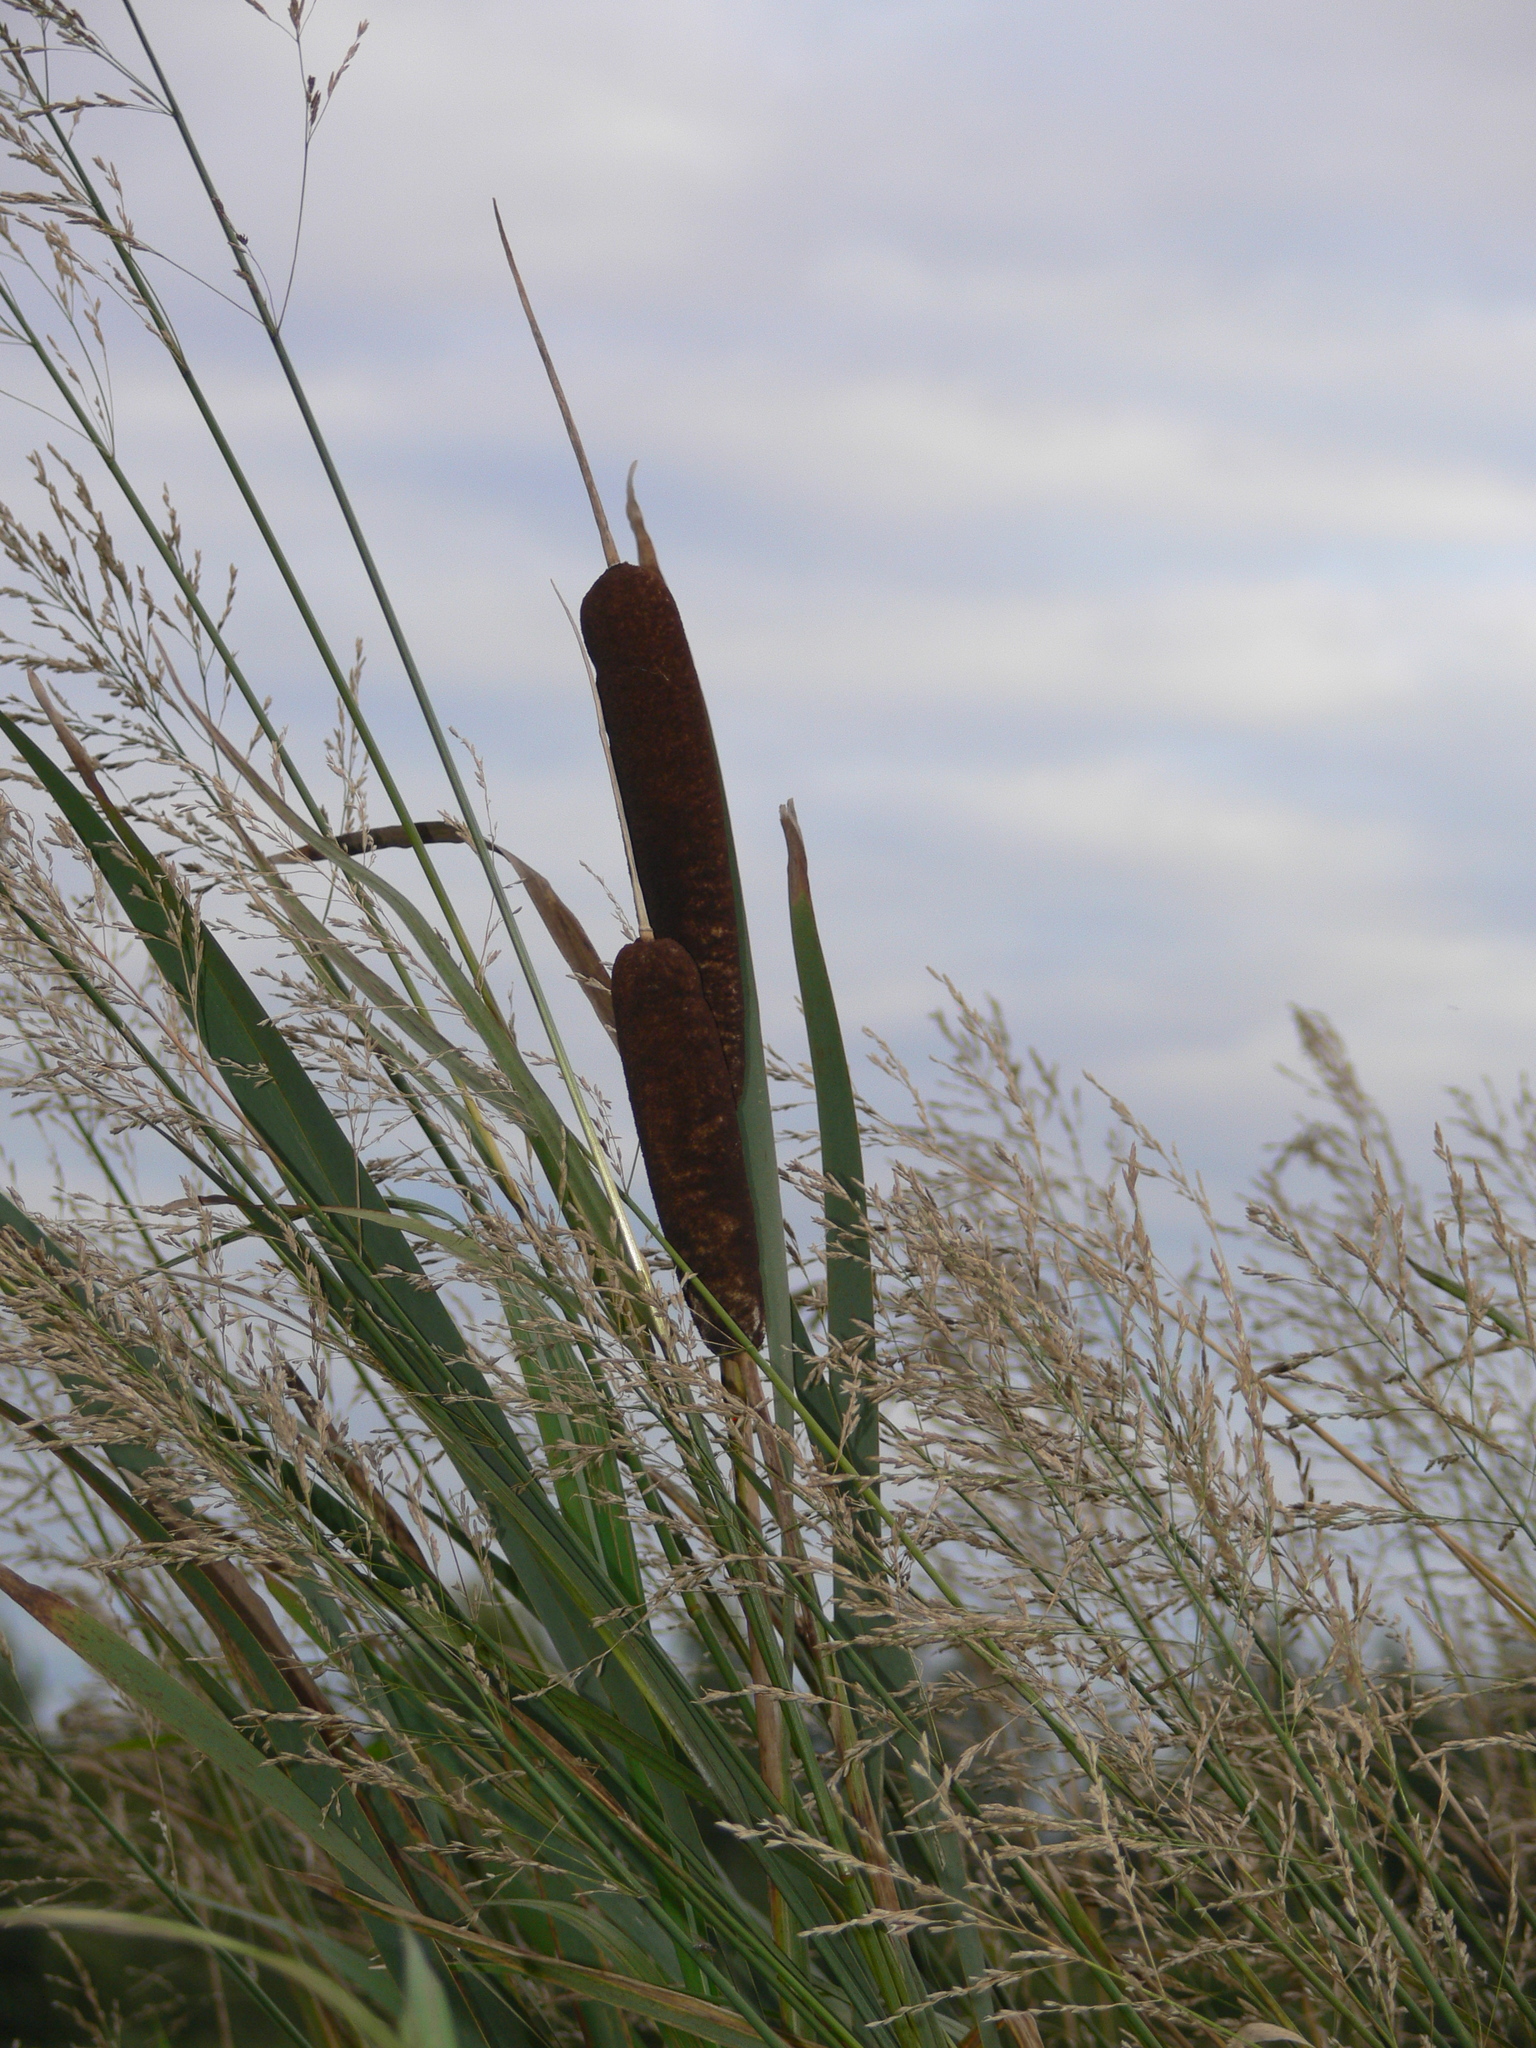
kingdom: Plantae
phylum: Tracheophyta
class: Liliopsida
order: Poales
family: Typhaceae
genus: Typha
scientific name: Typha latifolia
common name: Broadleaf cattail
